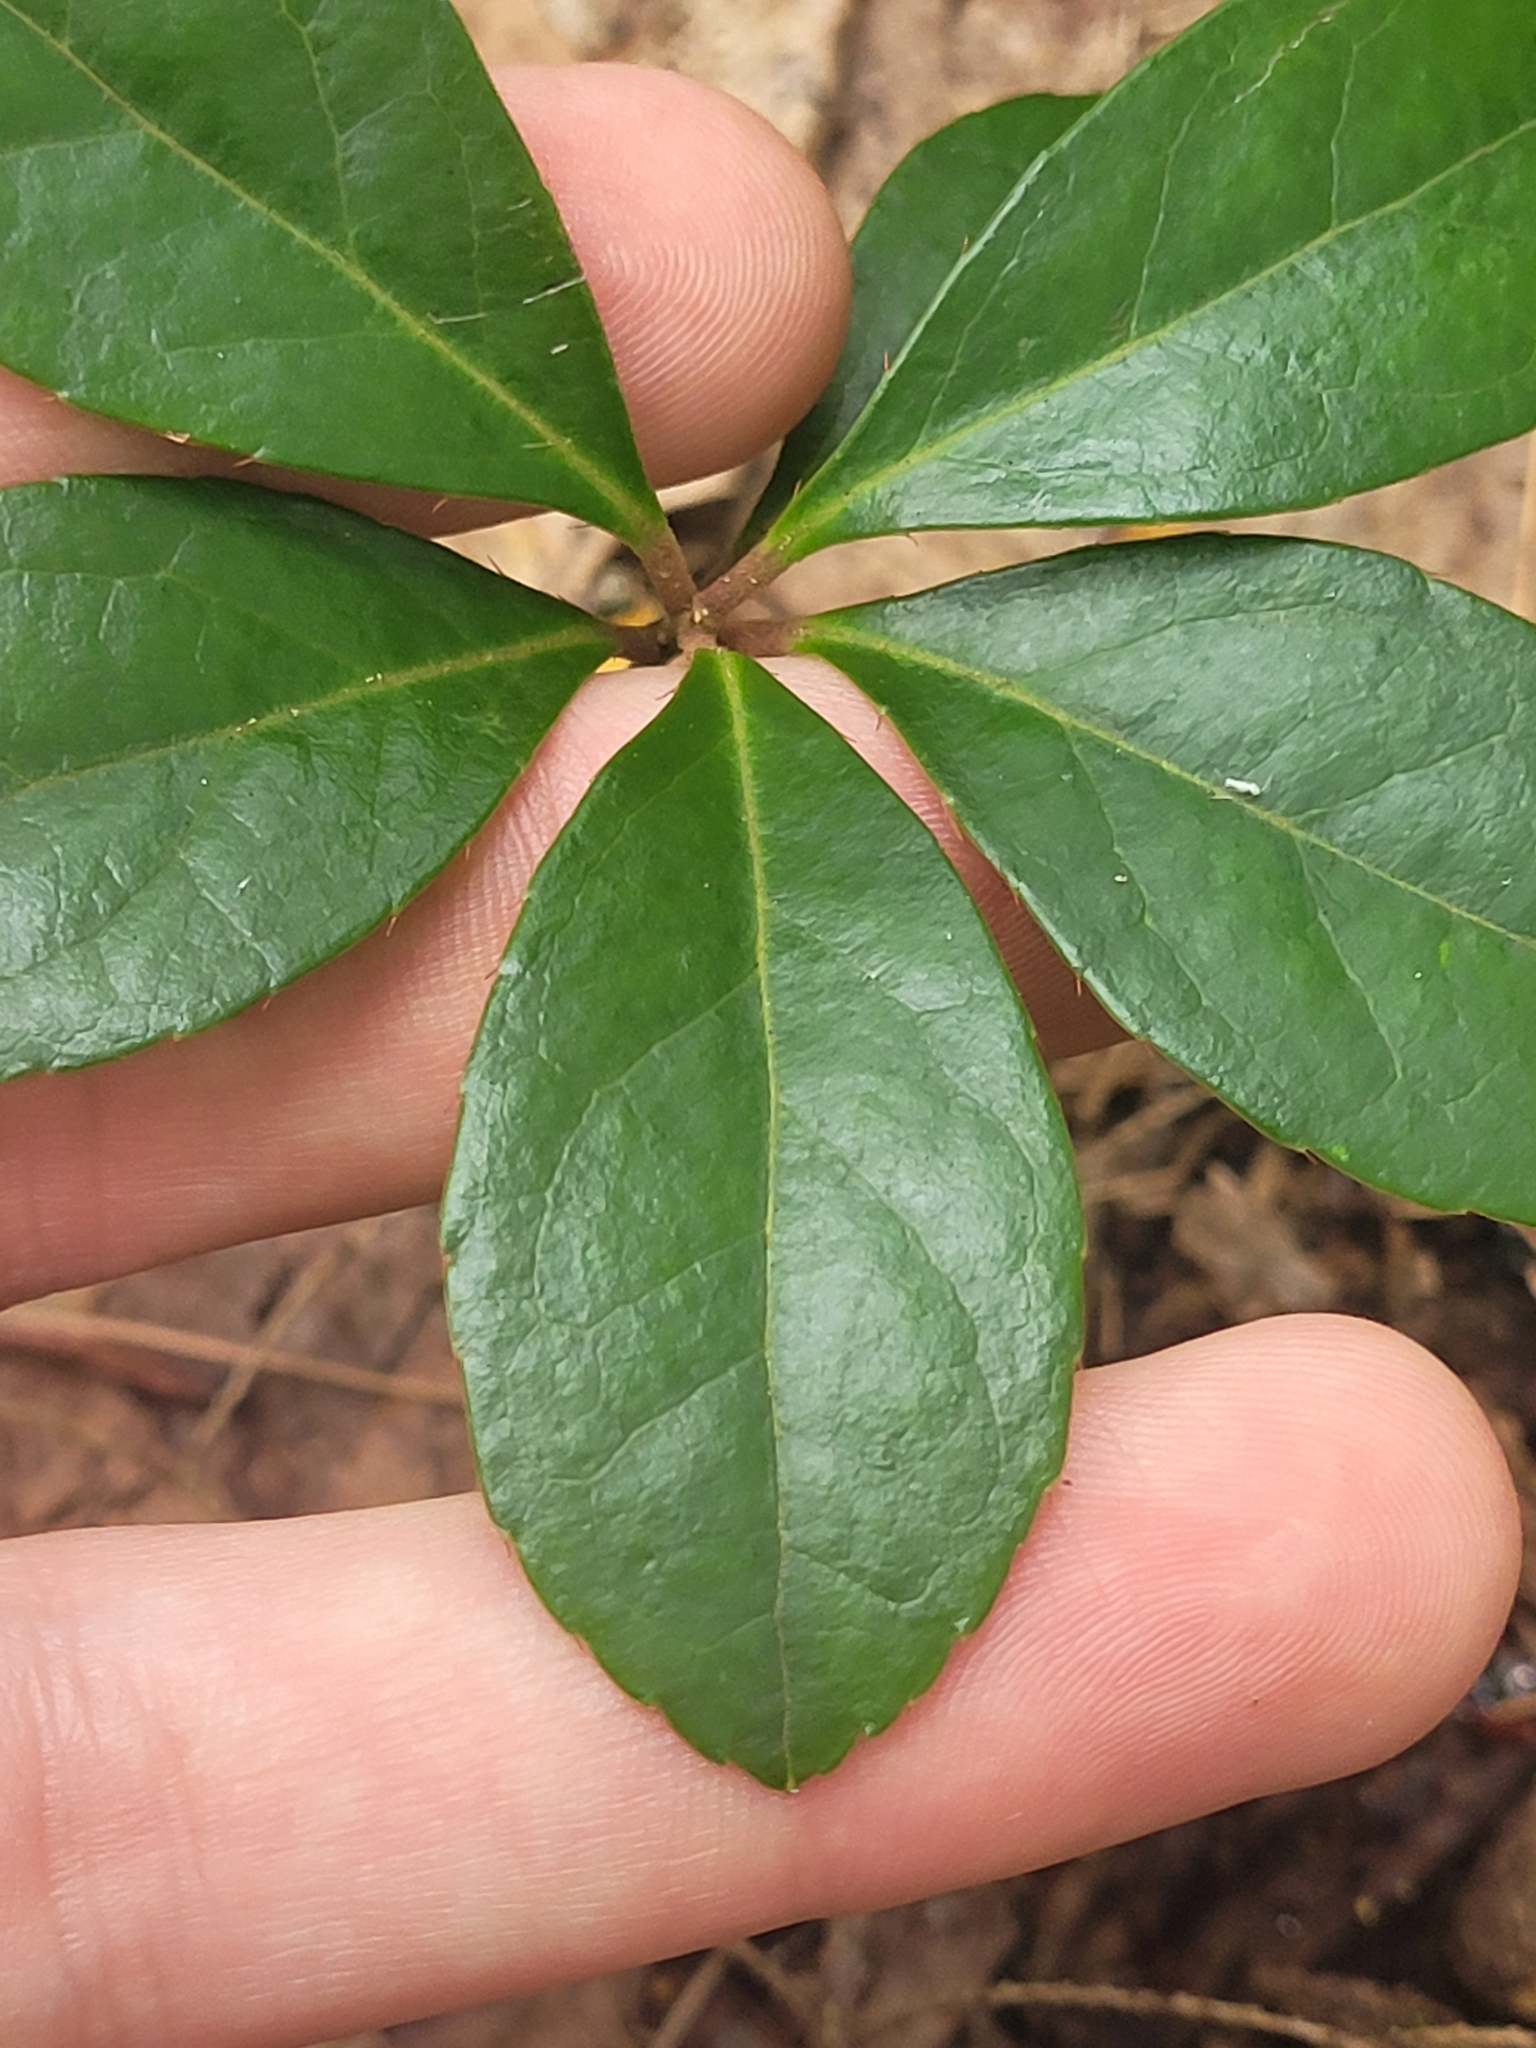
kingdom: Plantae
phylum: Tracheophyta
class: Magnoliopsida
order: Ericales
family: Ericaceae
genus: Gaultheria
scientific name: Gaultheria procumbens
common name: Checkerberry
